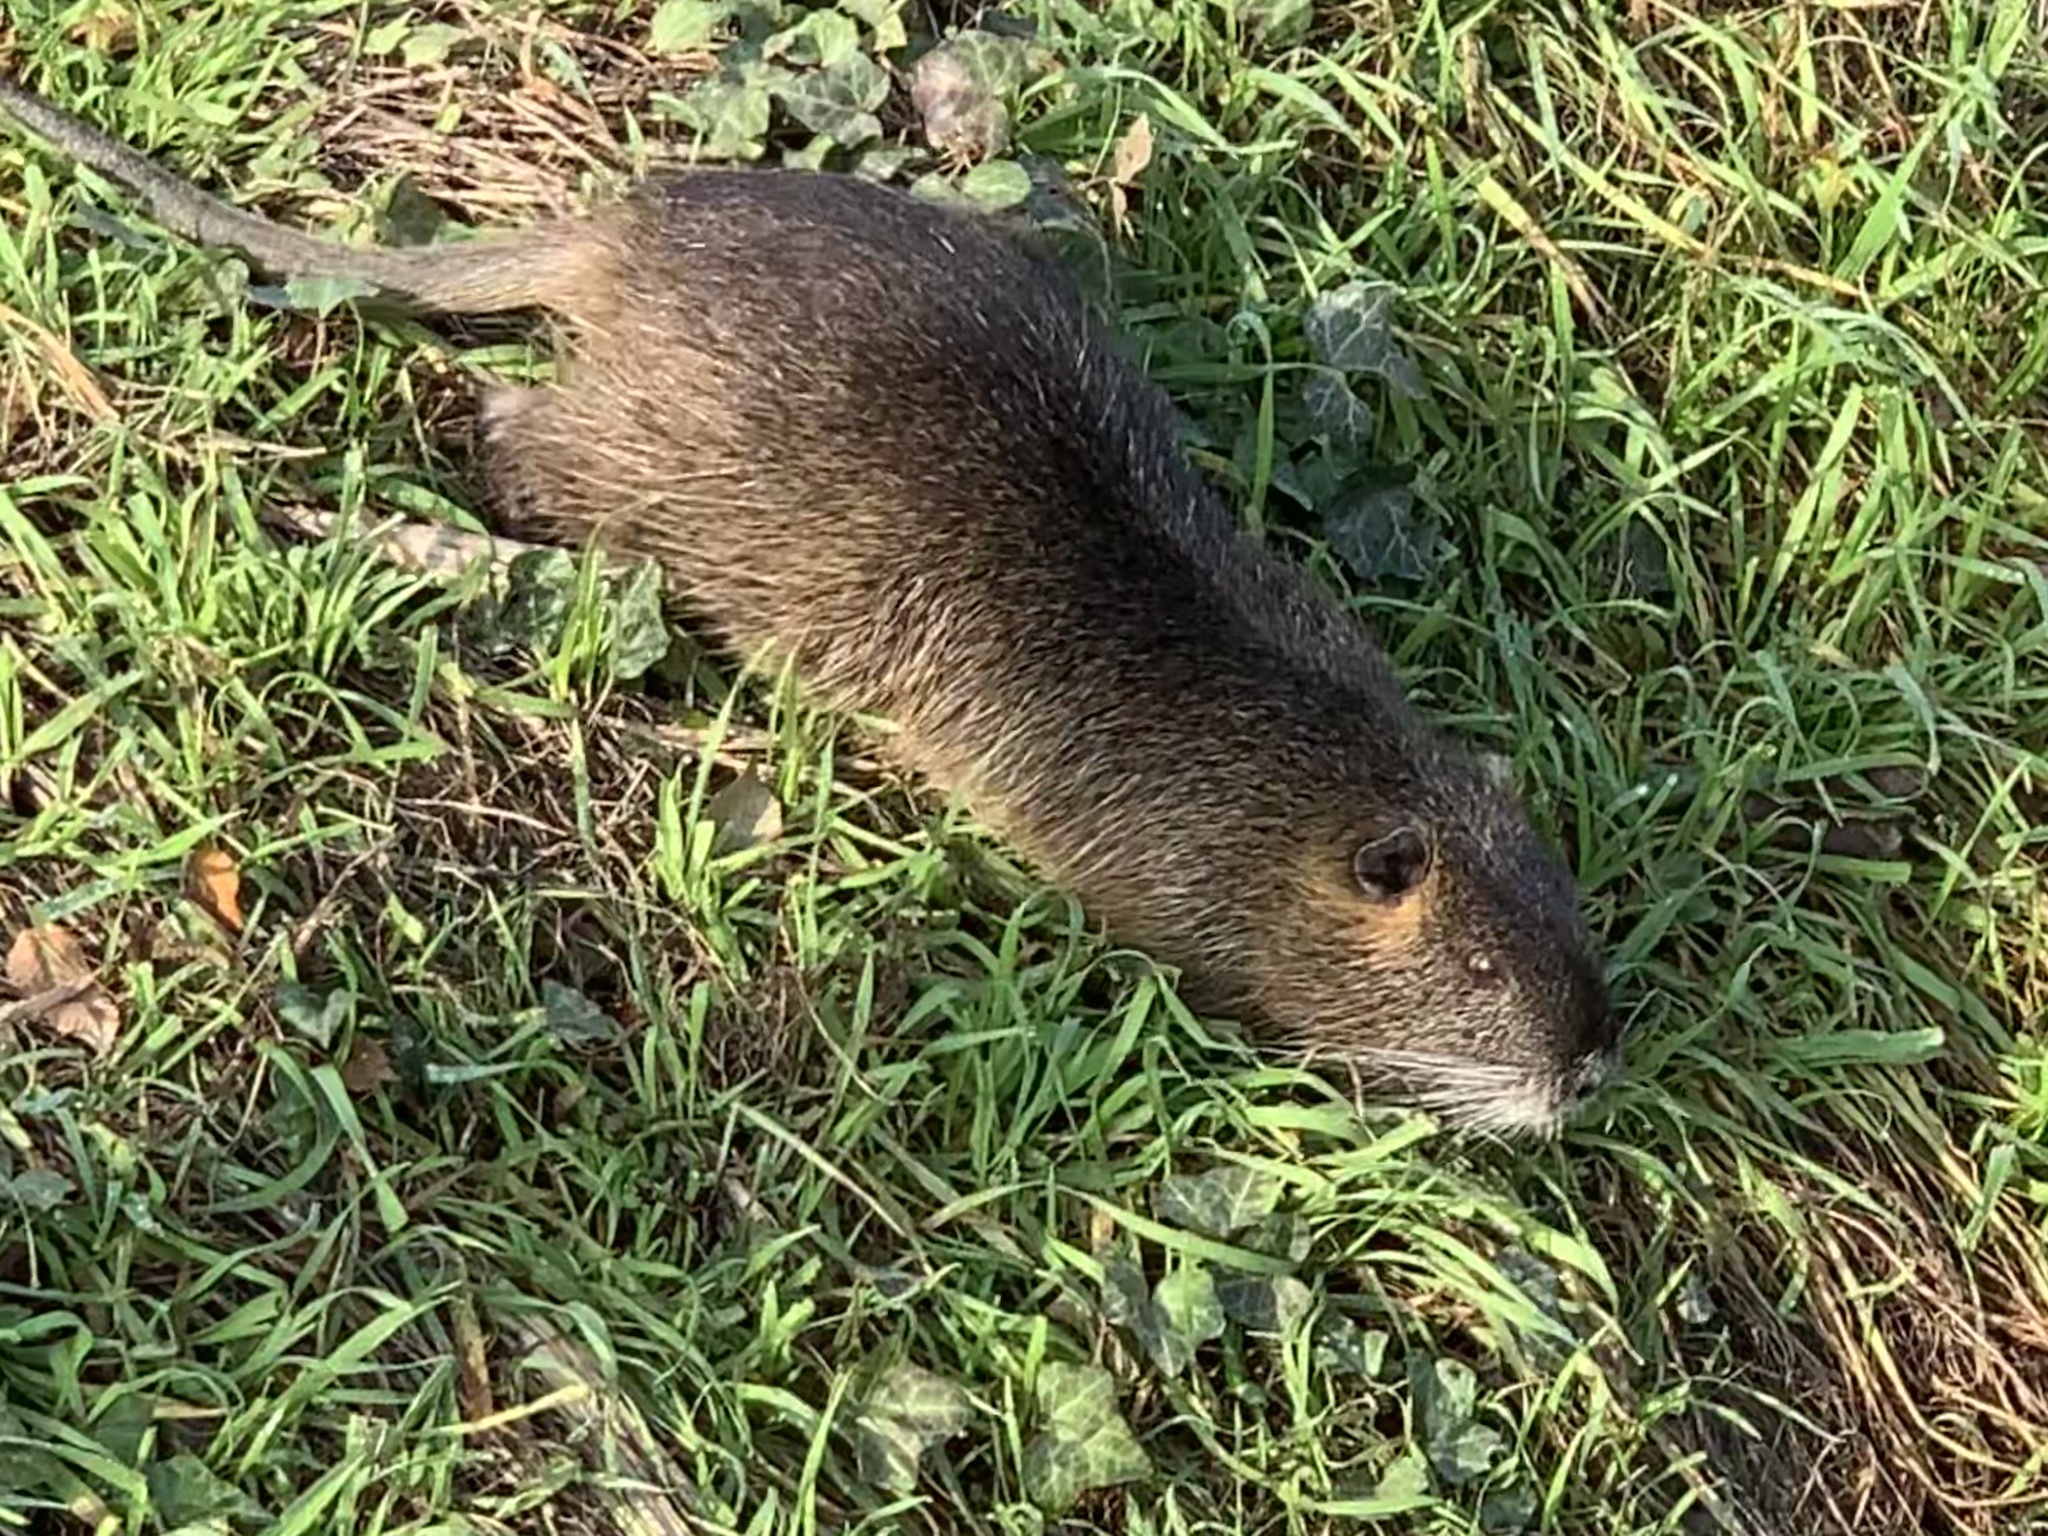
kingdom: Animalia
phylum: Chordata
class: Mammalia
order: Rodentia
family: Myocastoridae
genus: Myocastor
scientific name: Myocastor coypus
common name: Coypu
